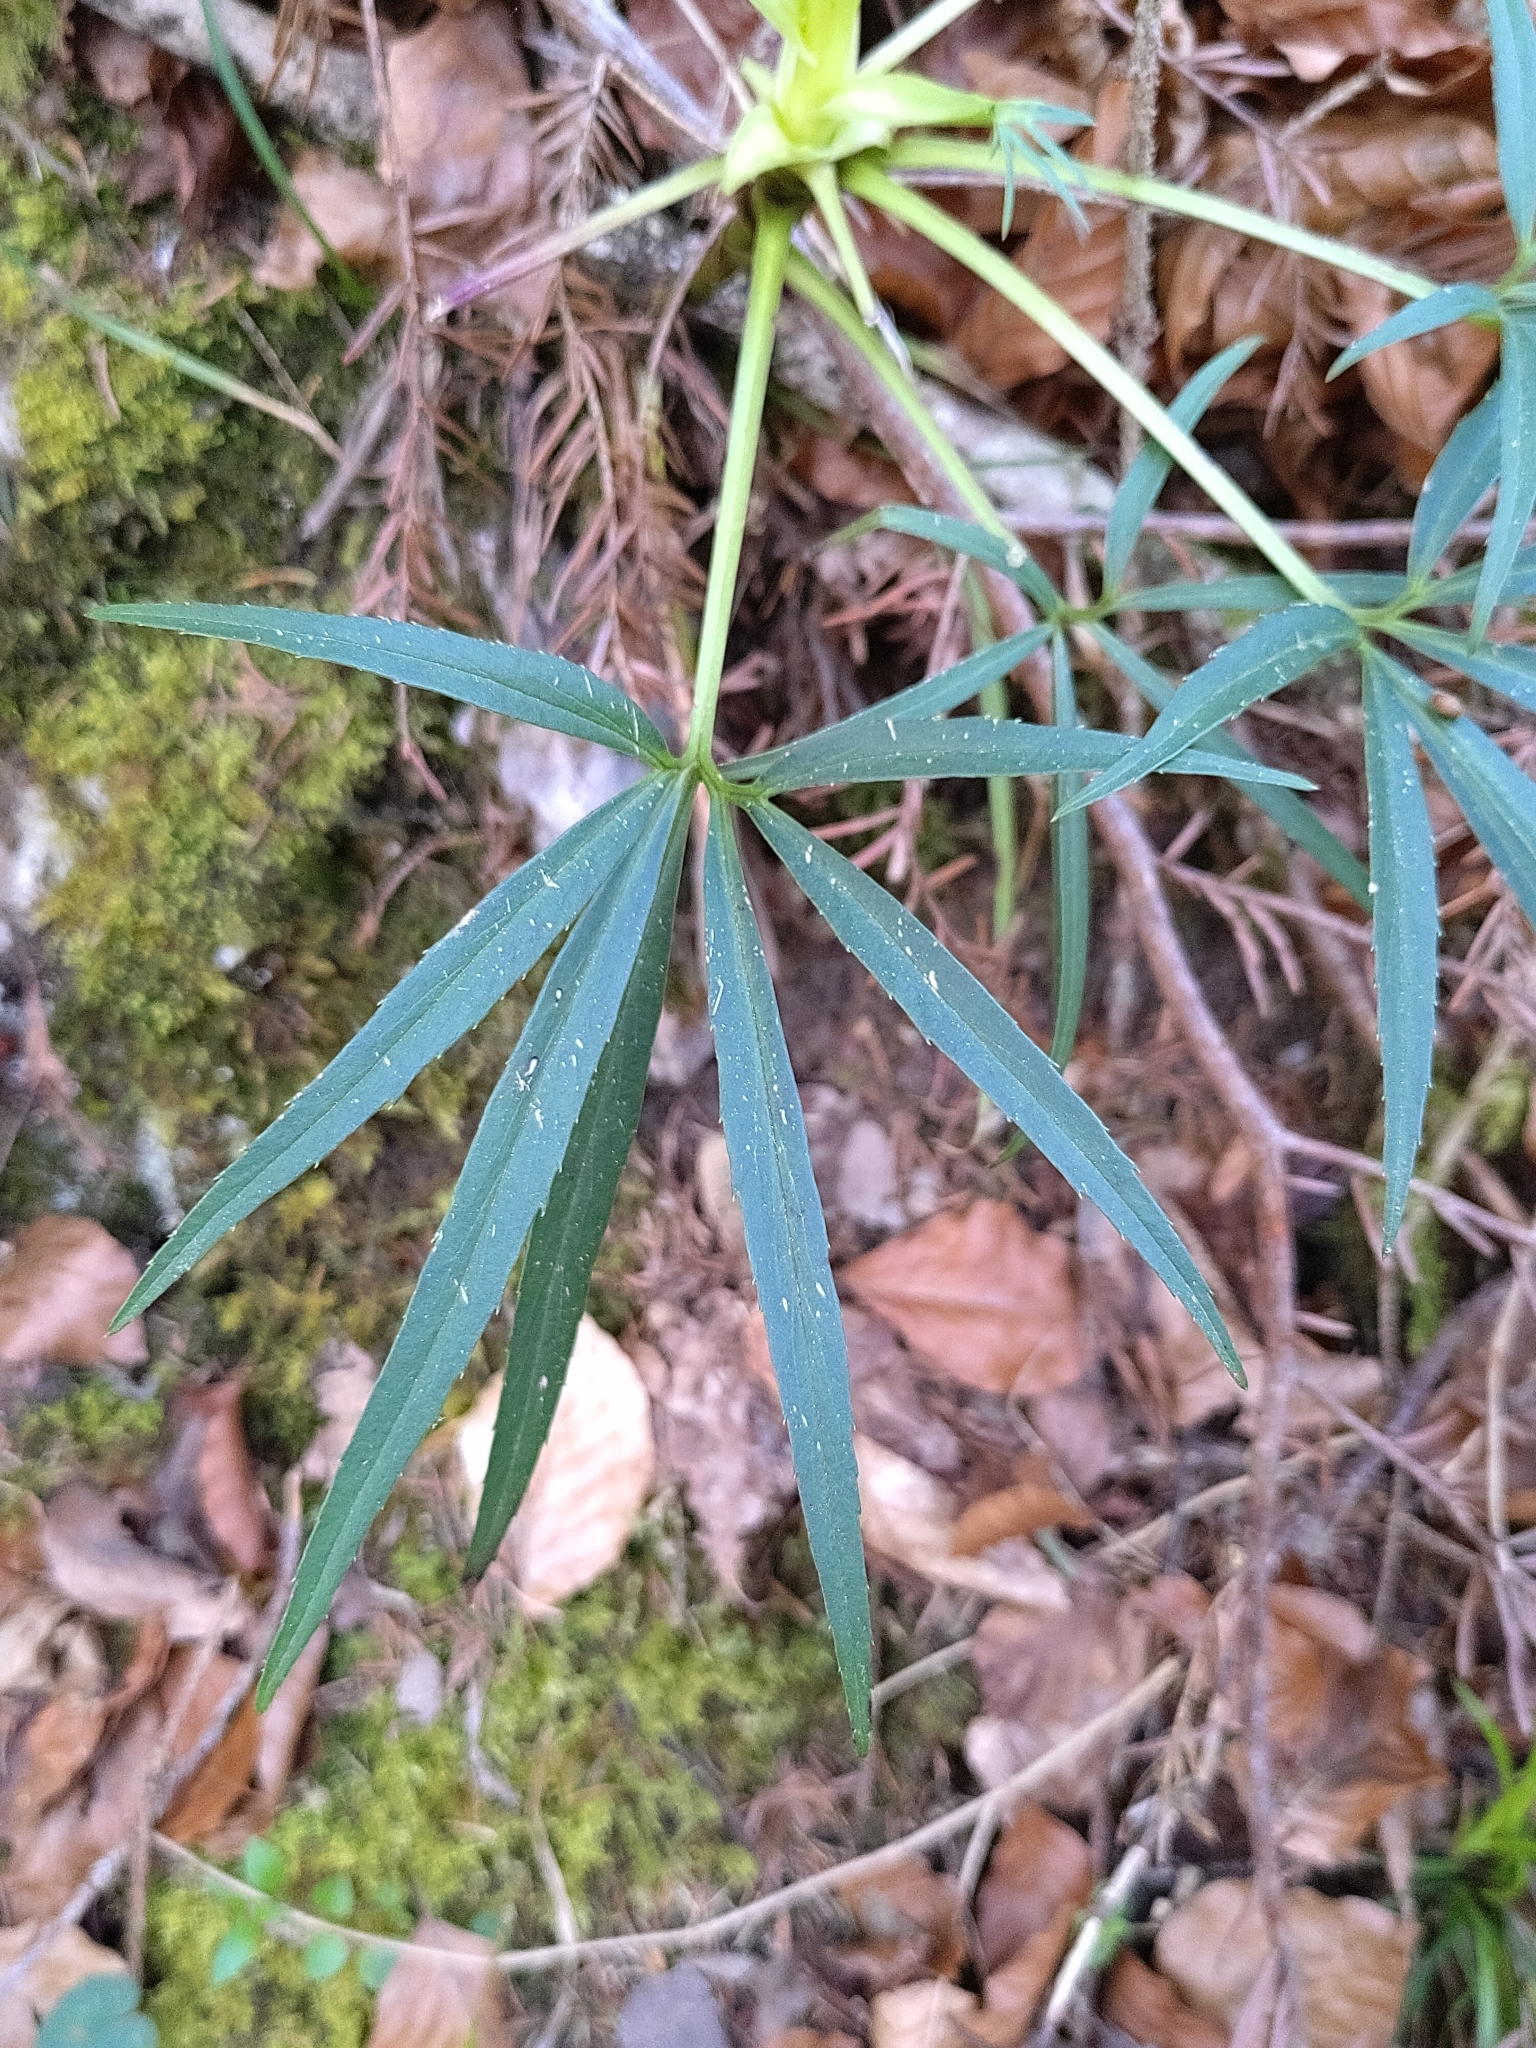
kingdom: Plantae
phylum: Tracheophyta
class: Magnoliopsida
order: Ranunculales
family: Ranunculaceae
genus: Helleborus
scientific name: Helleborus foetidus
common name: Stinking hellebore
